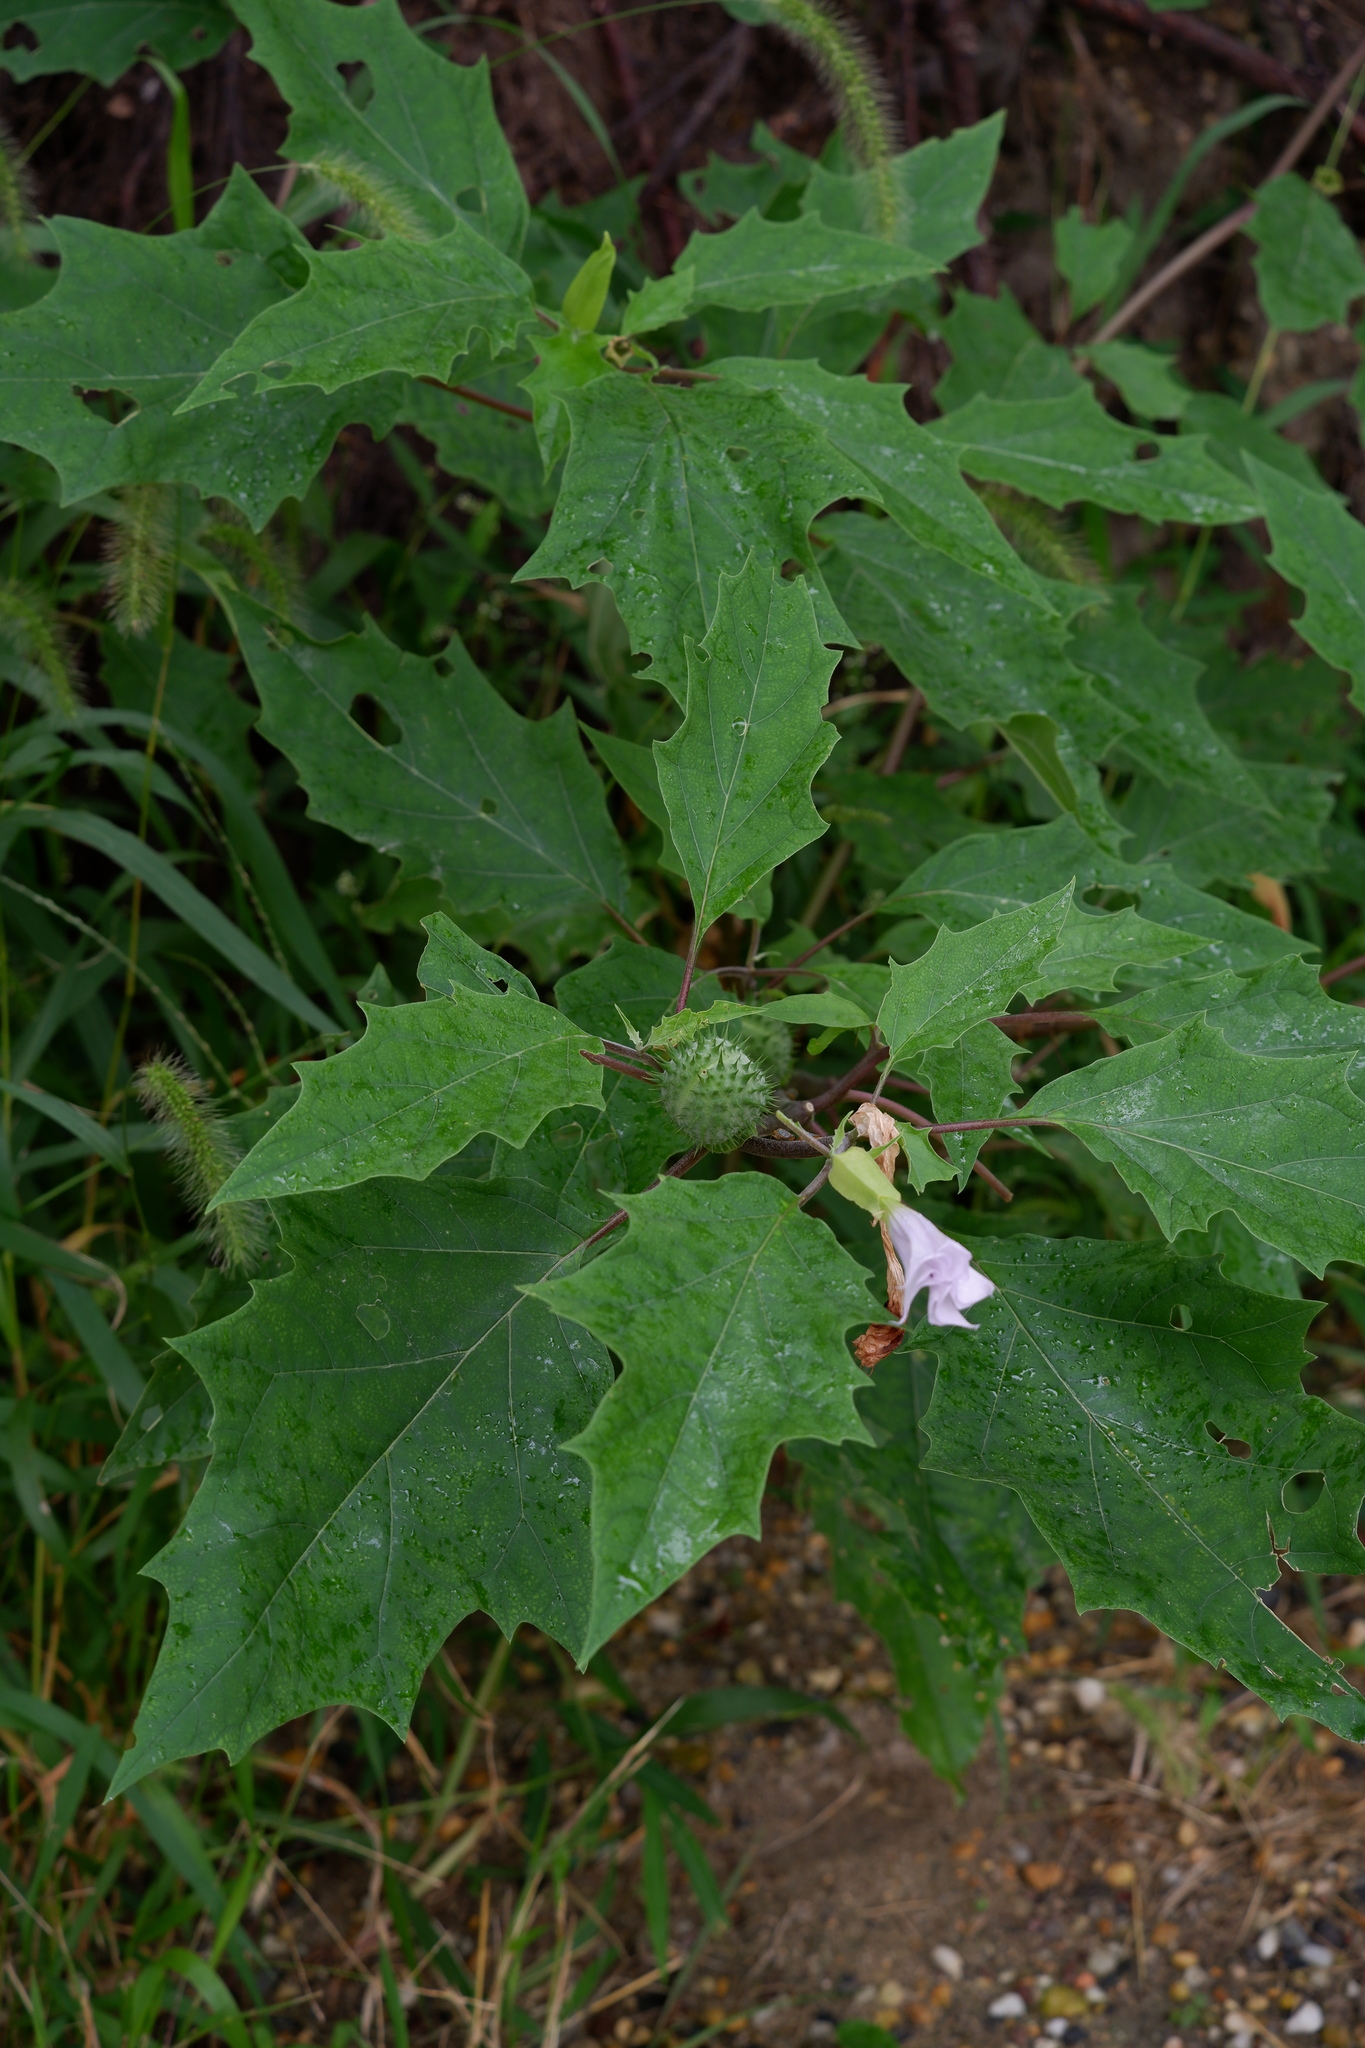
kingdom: Plantae
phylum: Tracheophyta
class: Magnoliopsida
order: Solanales
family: Solanaceae
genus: Datura
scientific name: Datura stramonium
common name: Thorn-apple
